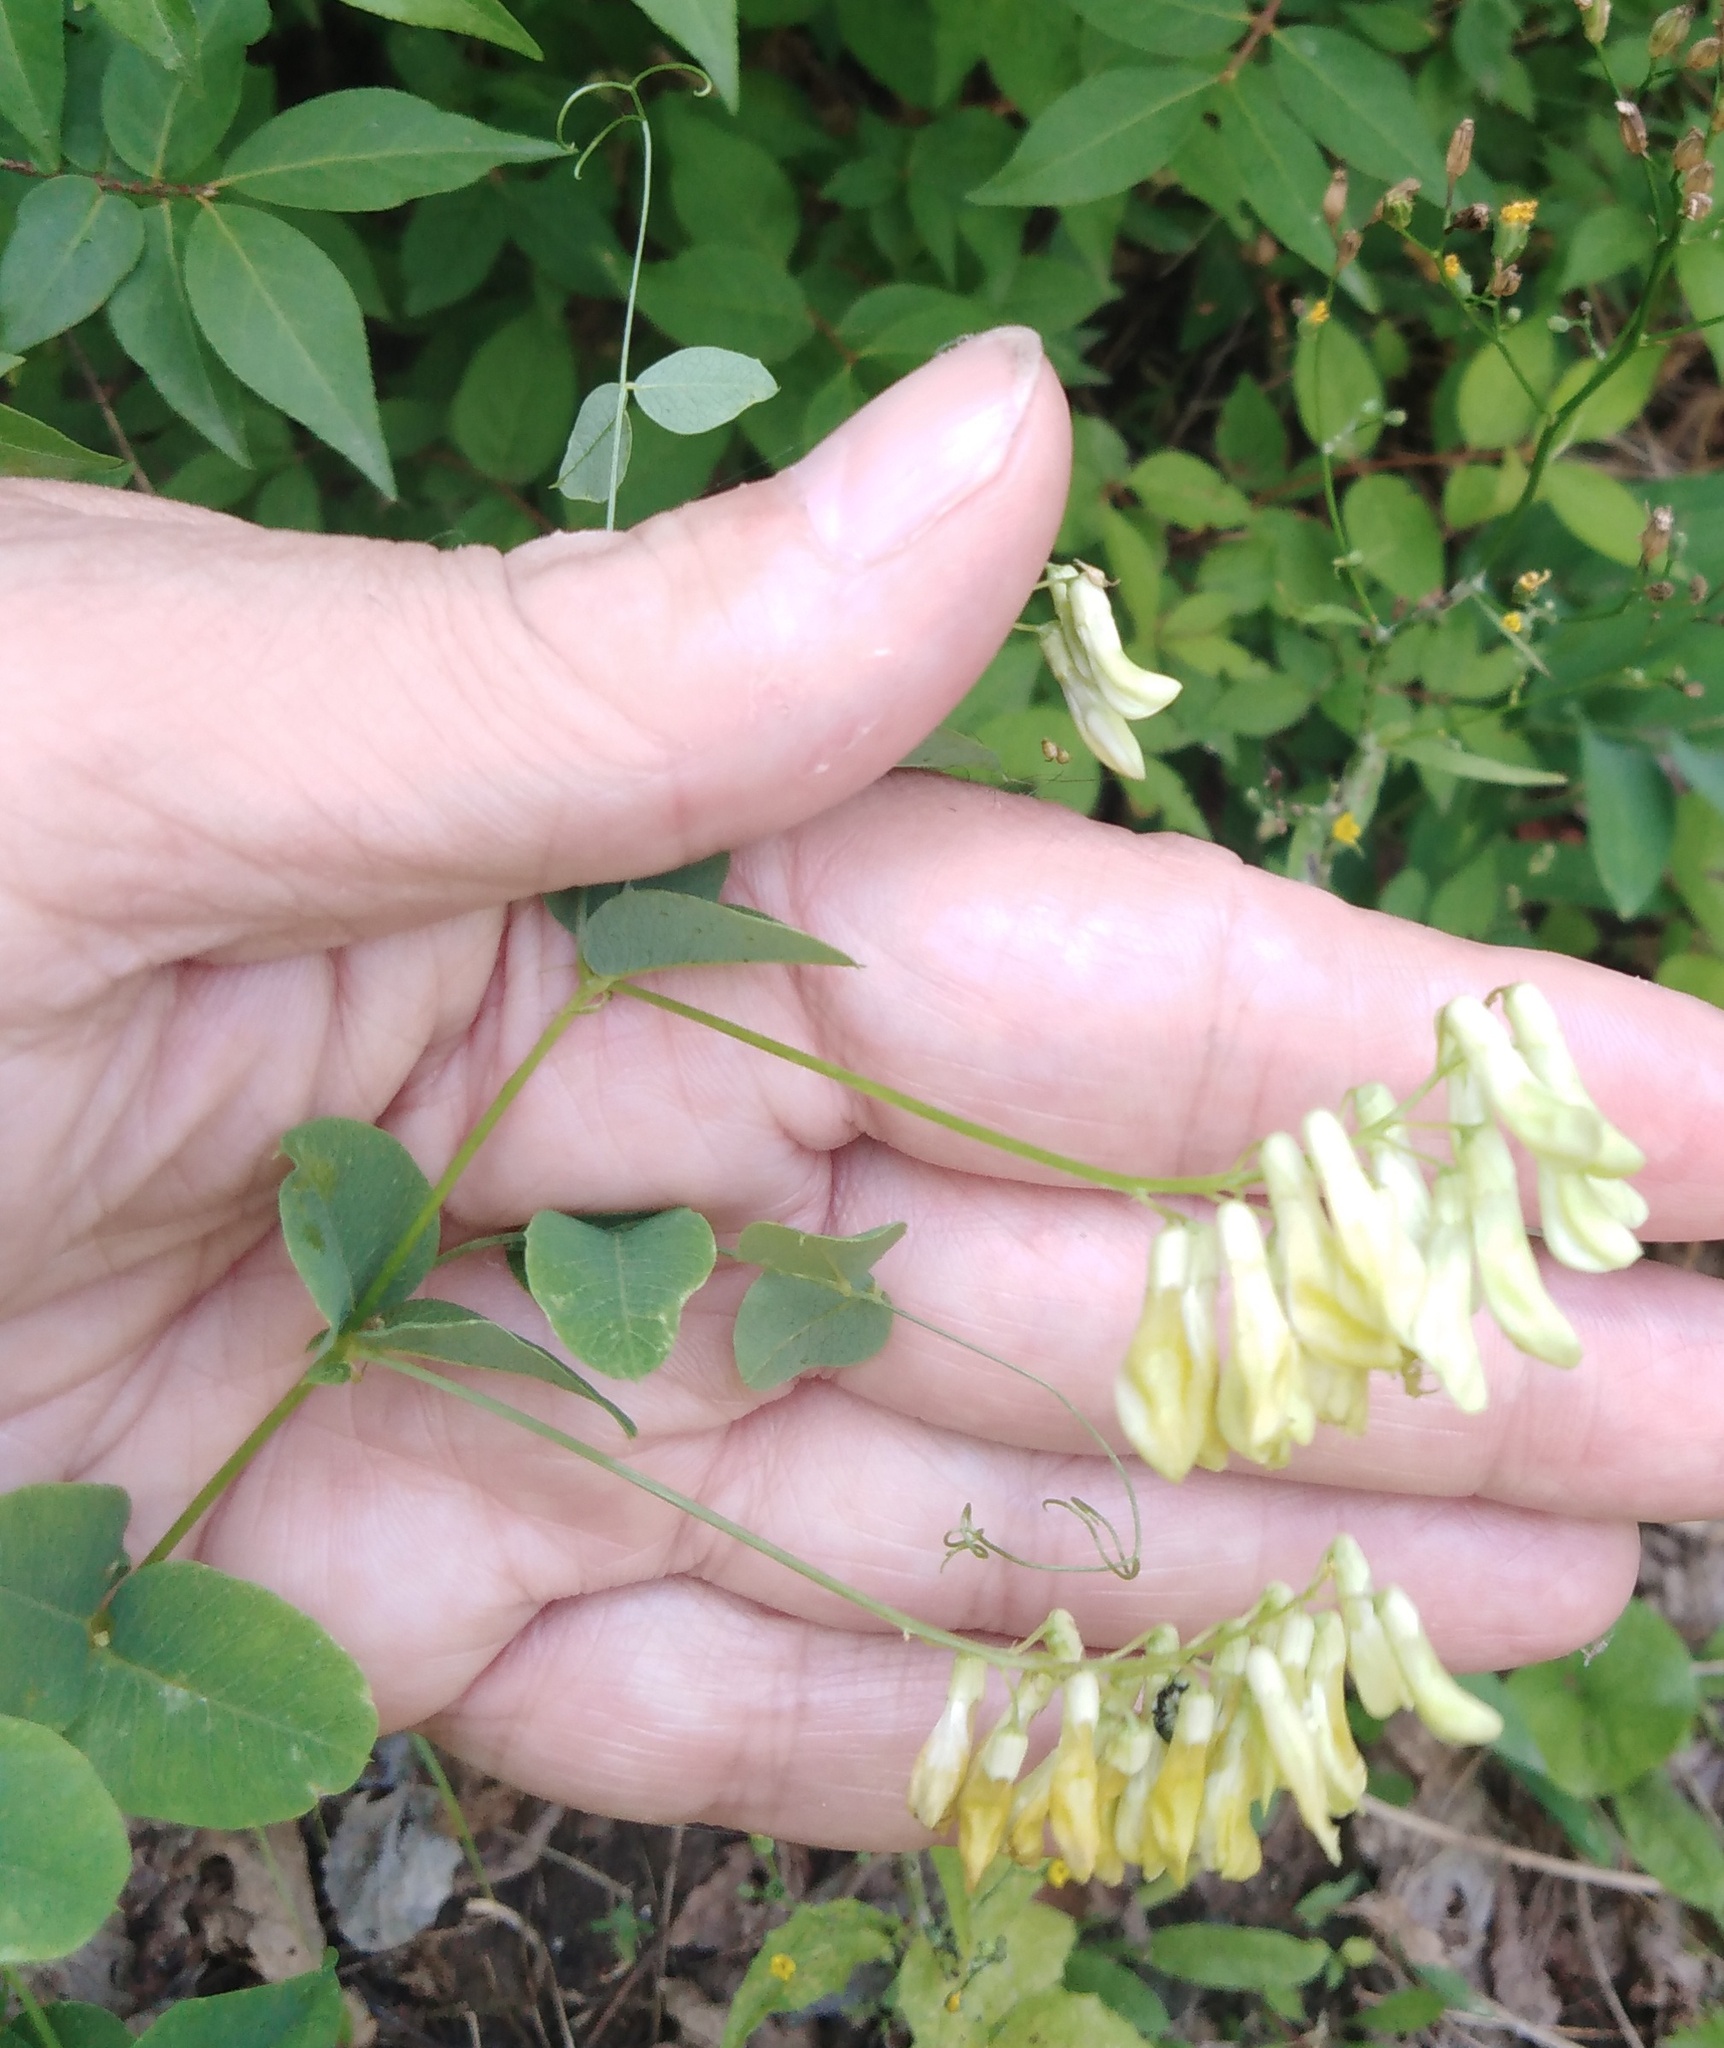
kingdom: Plantae
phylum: Tracheophyta
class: Magnoliopsida
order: Fabales
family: Fabaceae
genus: Vicia
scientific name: Vicia pisiformis
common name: Pale-flower vetch
